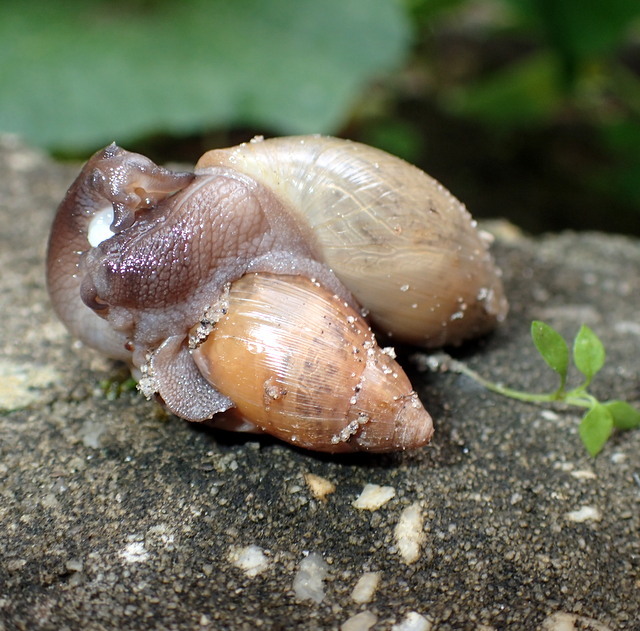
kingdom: Animalia
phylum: Mollusca
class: Gastropoda
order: Stylommatophora
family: Spiraxidae
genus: Euglandina
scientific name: Euglandina rosea
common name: Rosy wolfsnail
